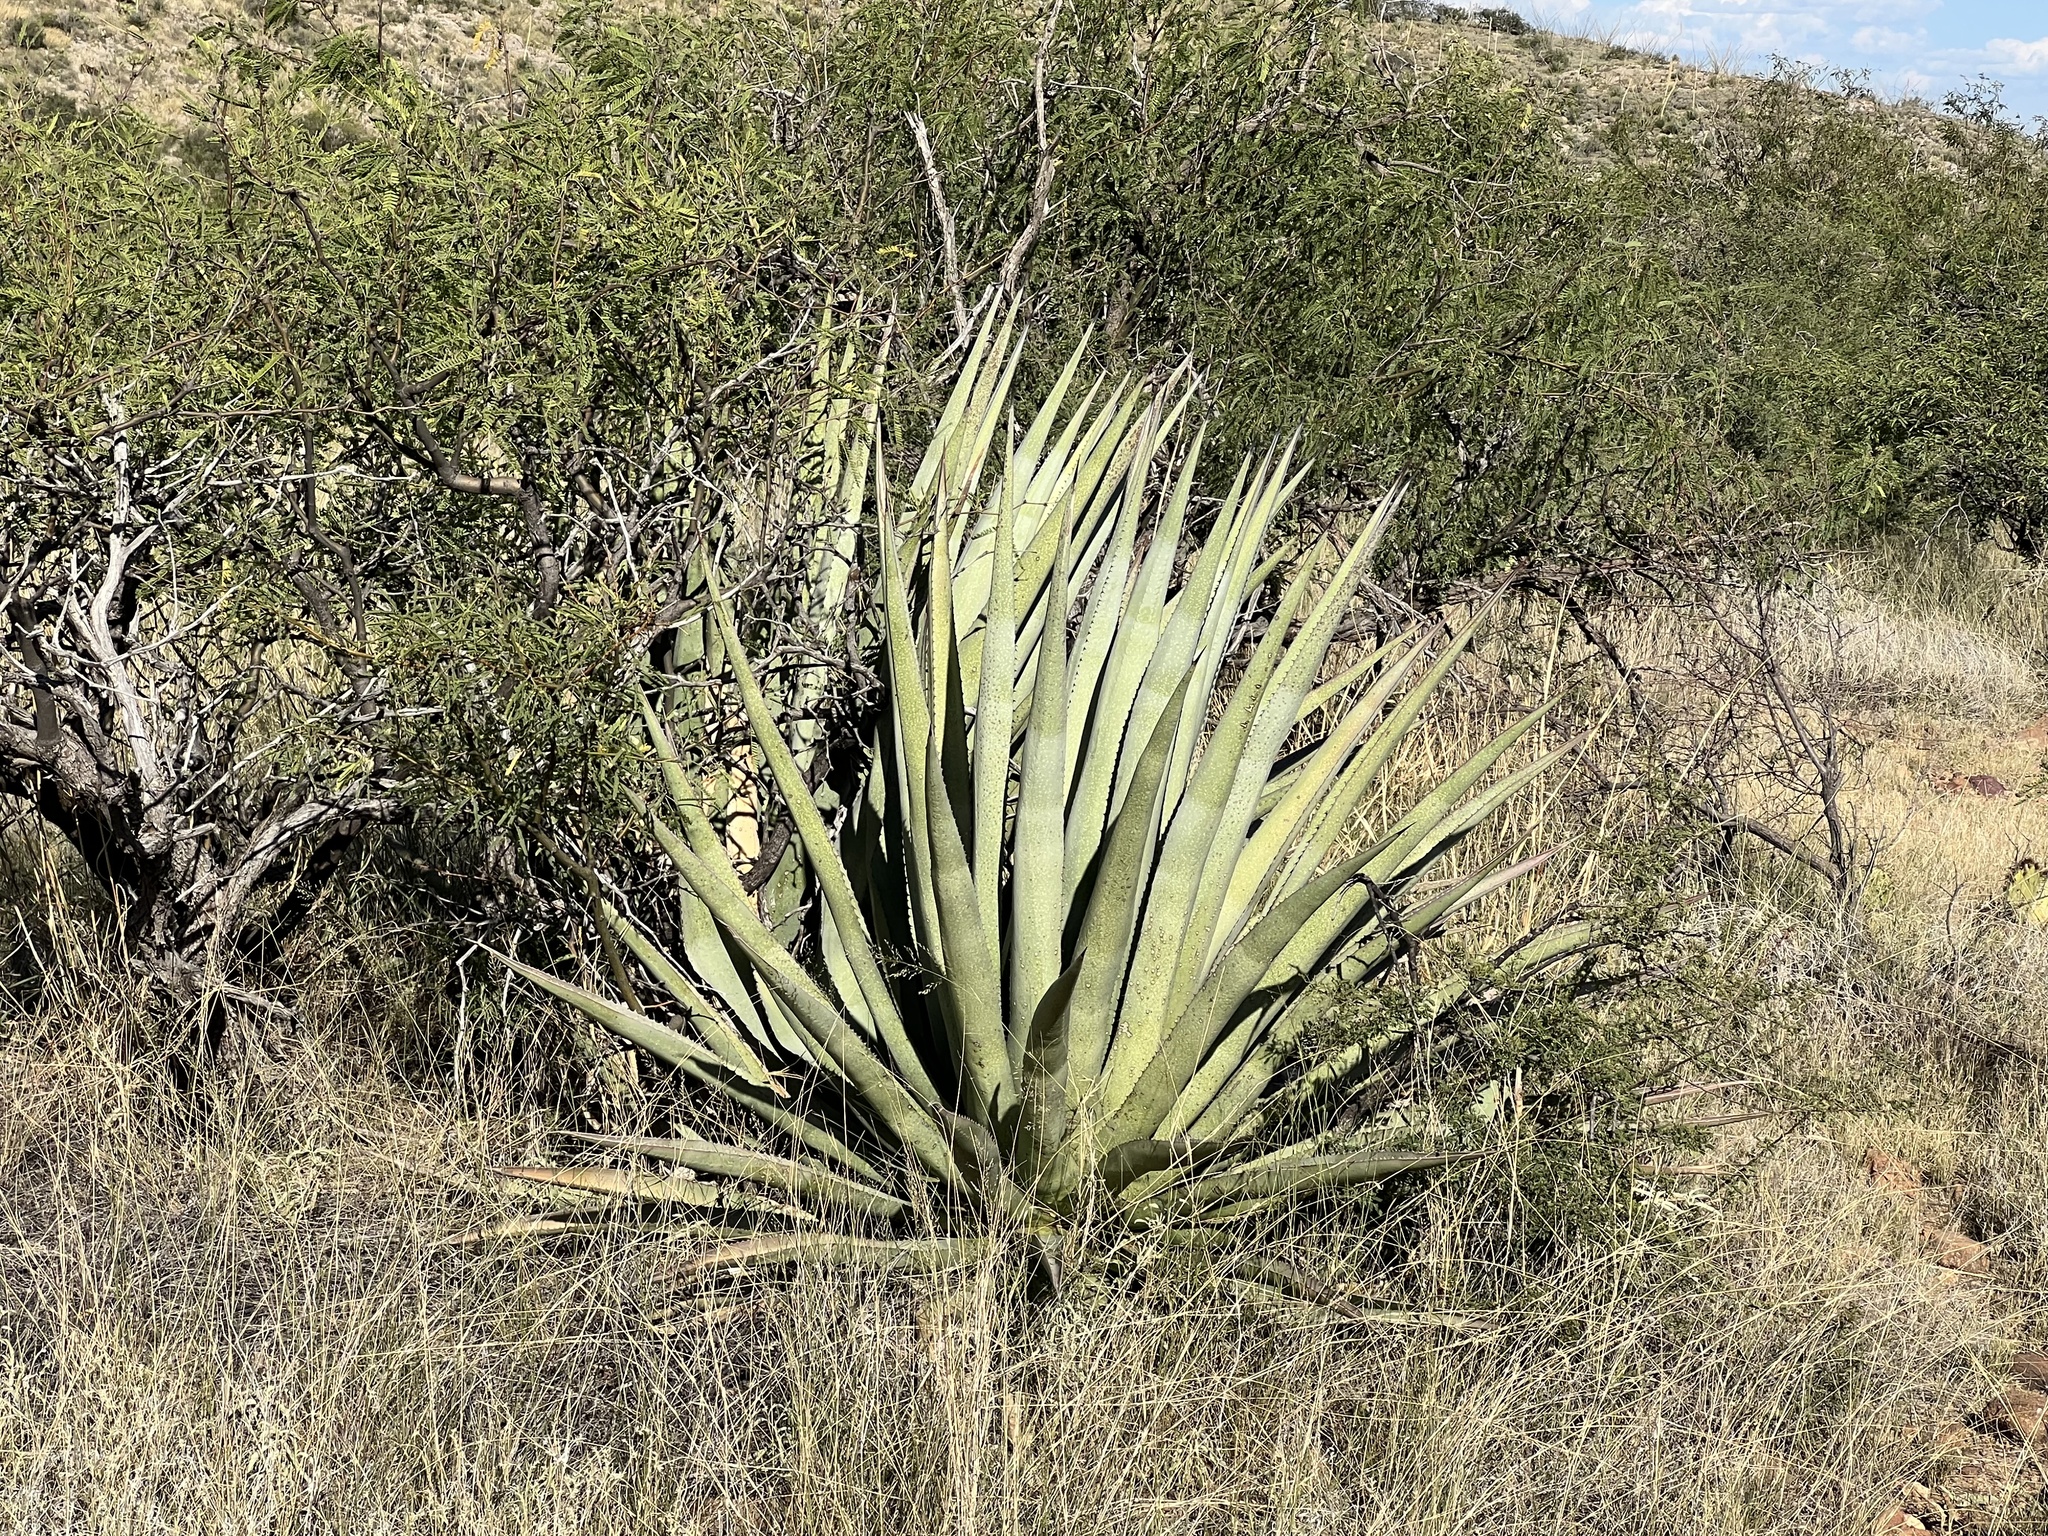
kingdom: Plantae
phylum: Tracheophyta
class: Liliopsida
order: Asparagales
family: Asparagaceae
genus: Agave
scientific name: Agave palmeri
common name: Palmer agave
